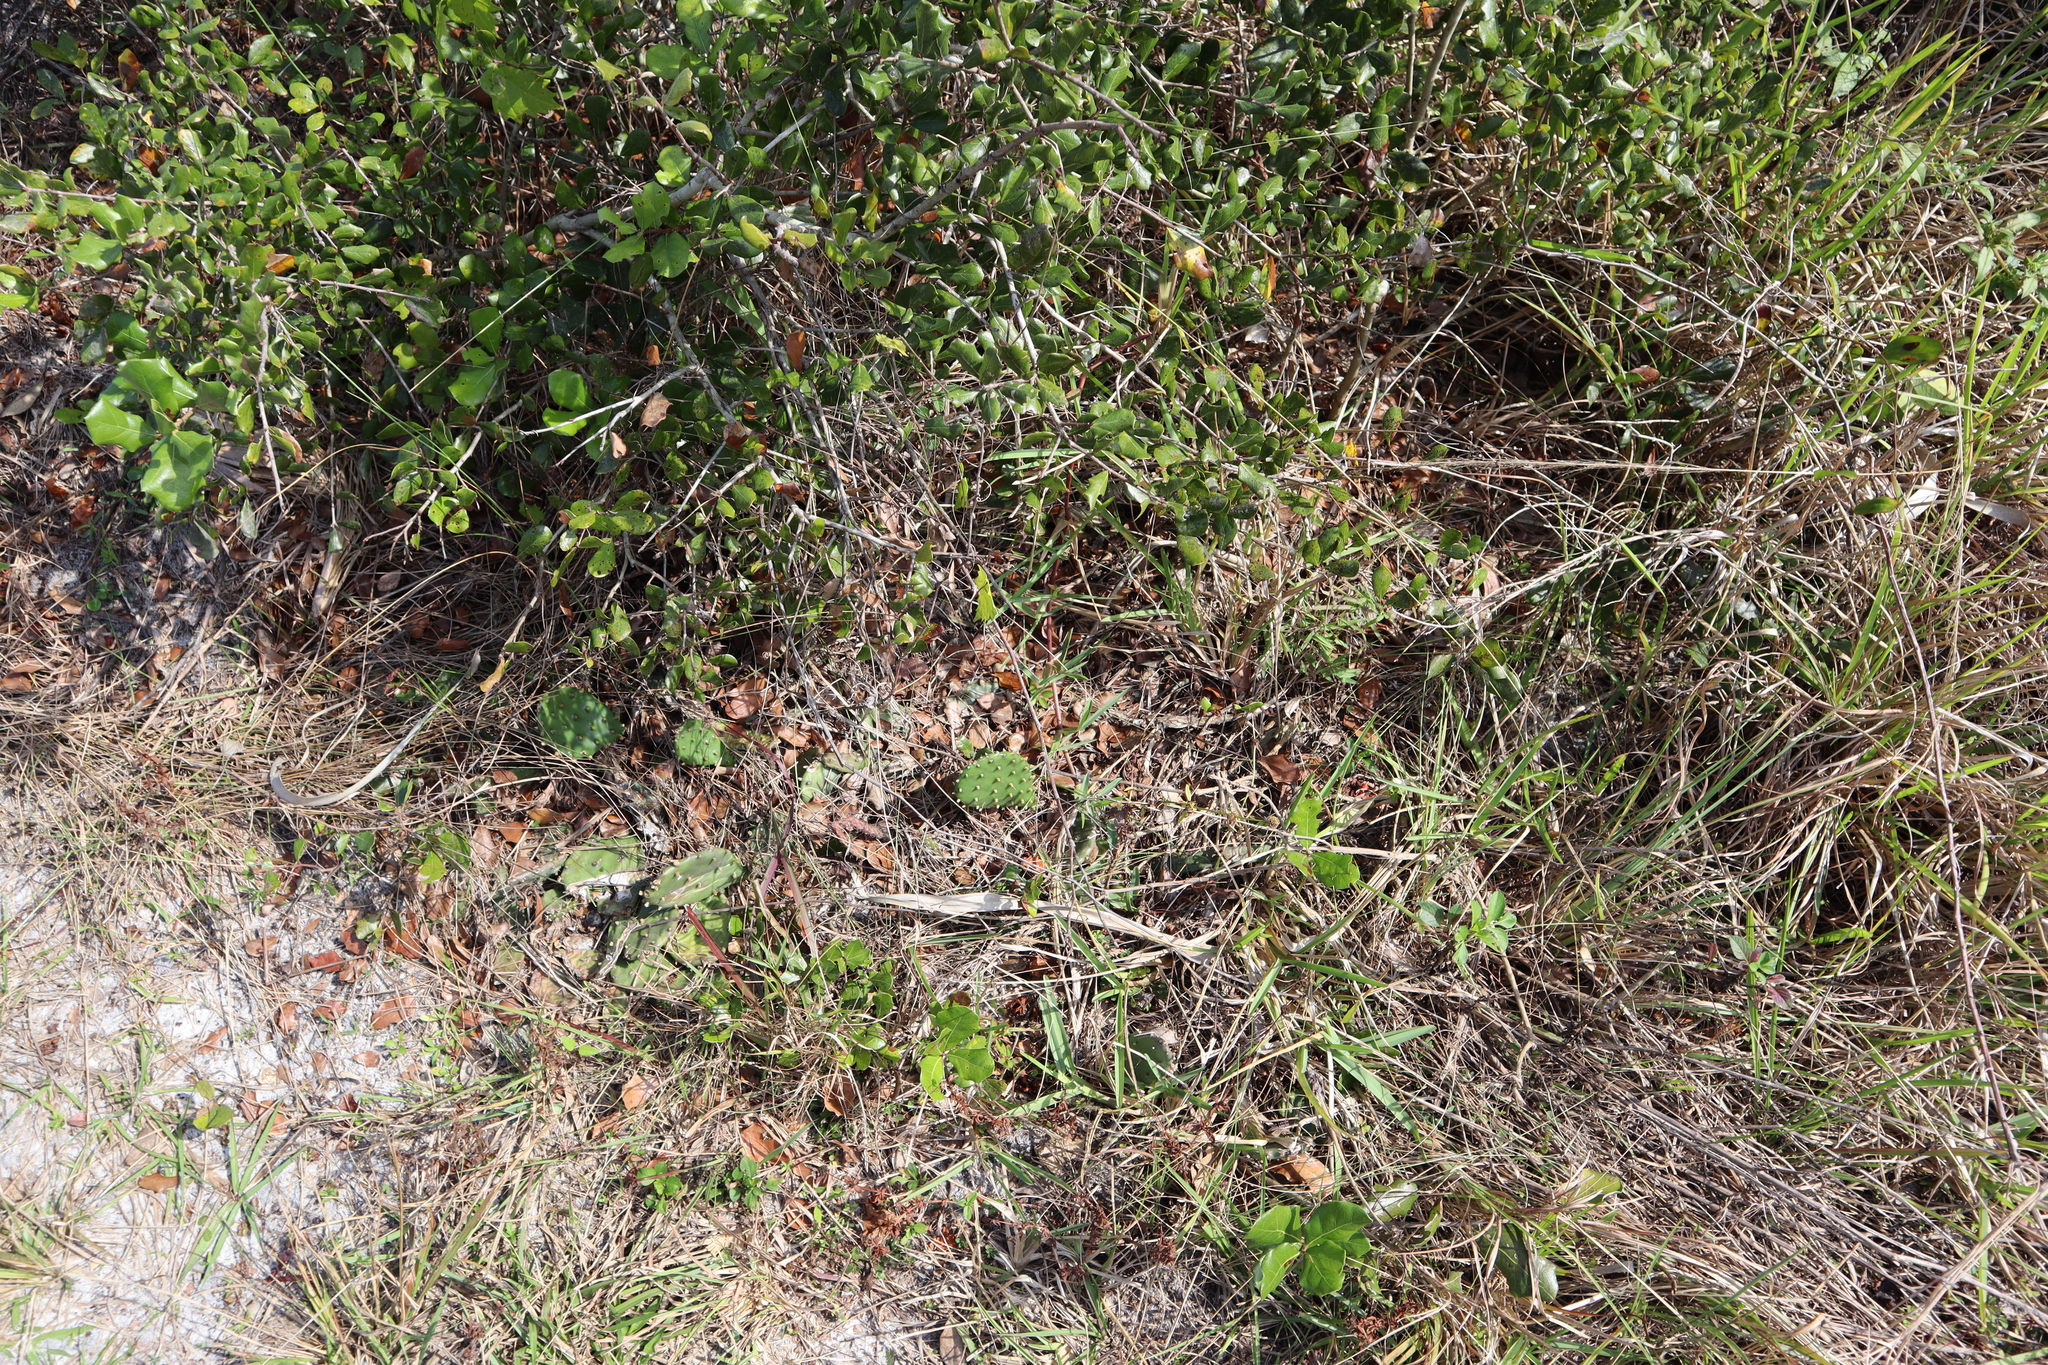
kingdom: Plantae
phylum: Tracheophyta
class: Magnoliopsida
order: Vitales
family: Vitaceae
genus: Vitis
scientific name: Vitis rotundifolia
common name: Muscadine grape
